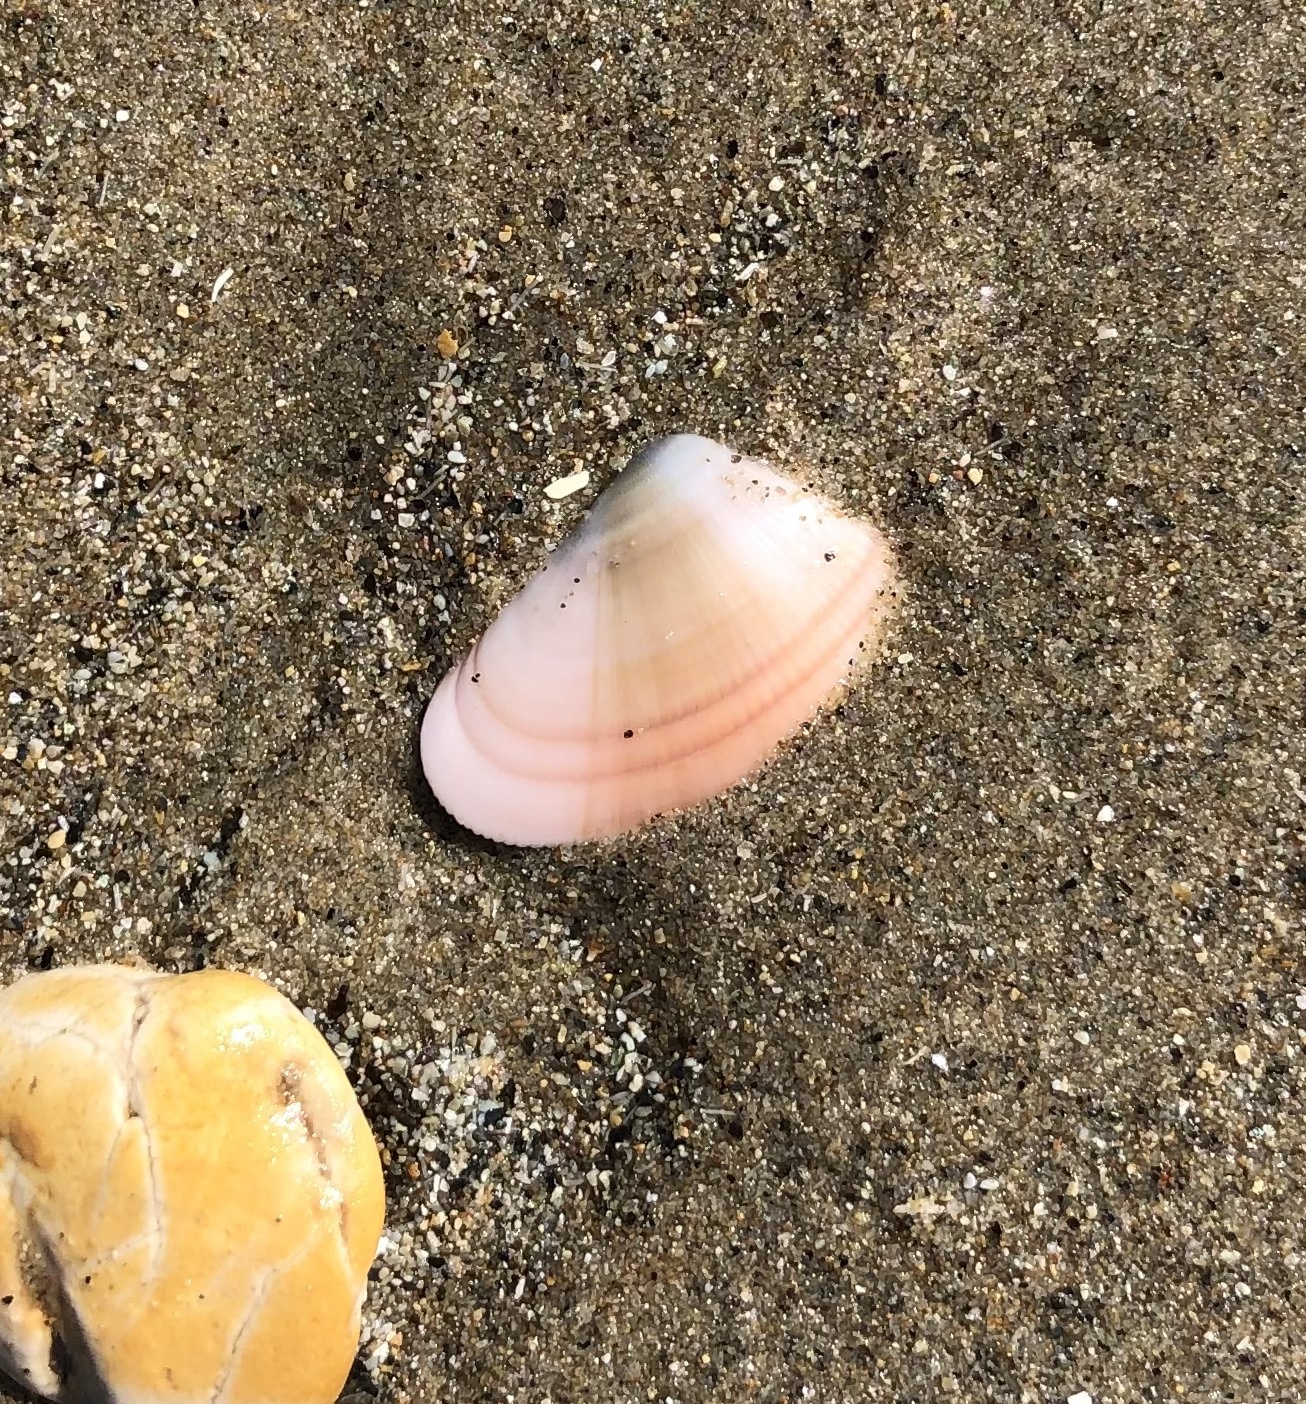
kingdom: Animalia
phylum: Mollusca
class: Bivalvia
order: Cardiida
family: Donacidae
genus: Donax
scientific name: Donax gouldii
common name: Gould beanclam
